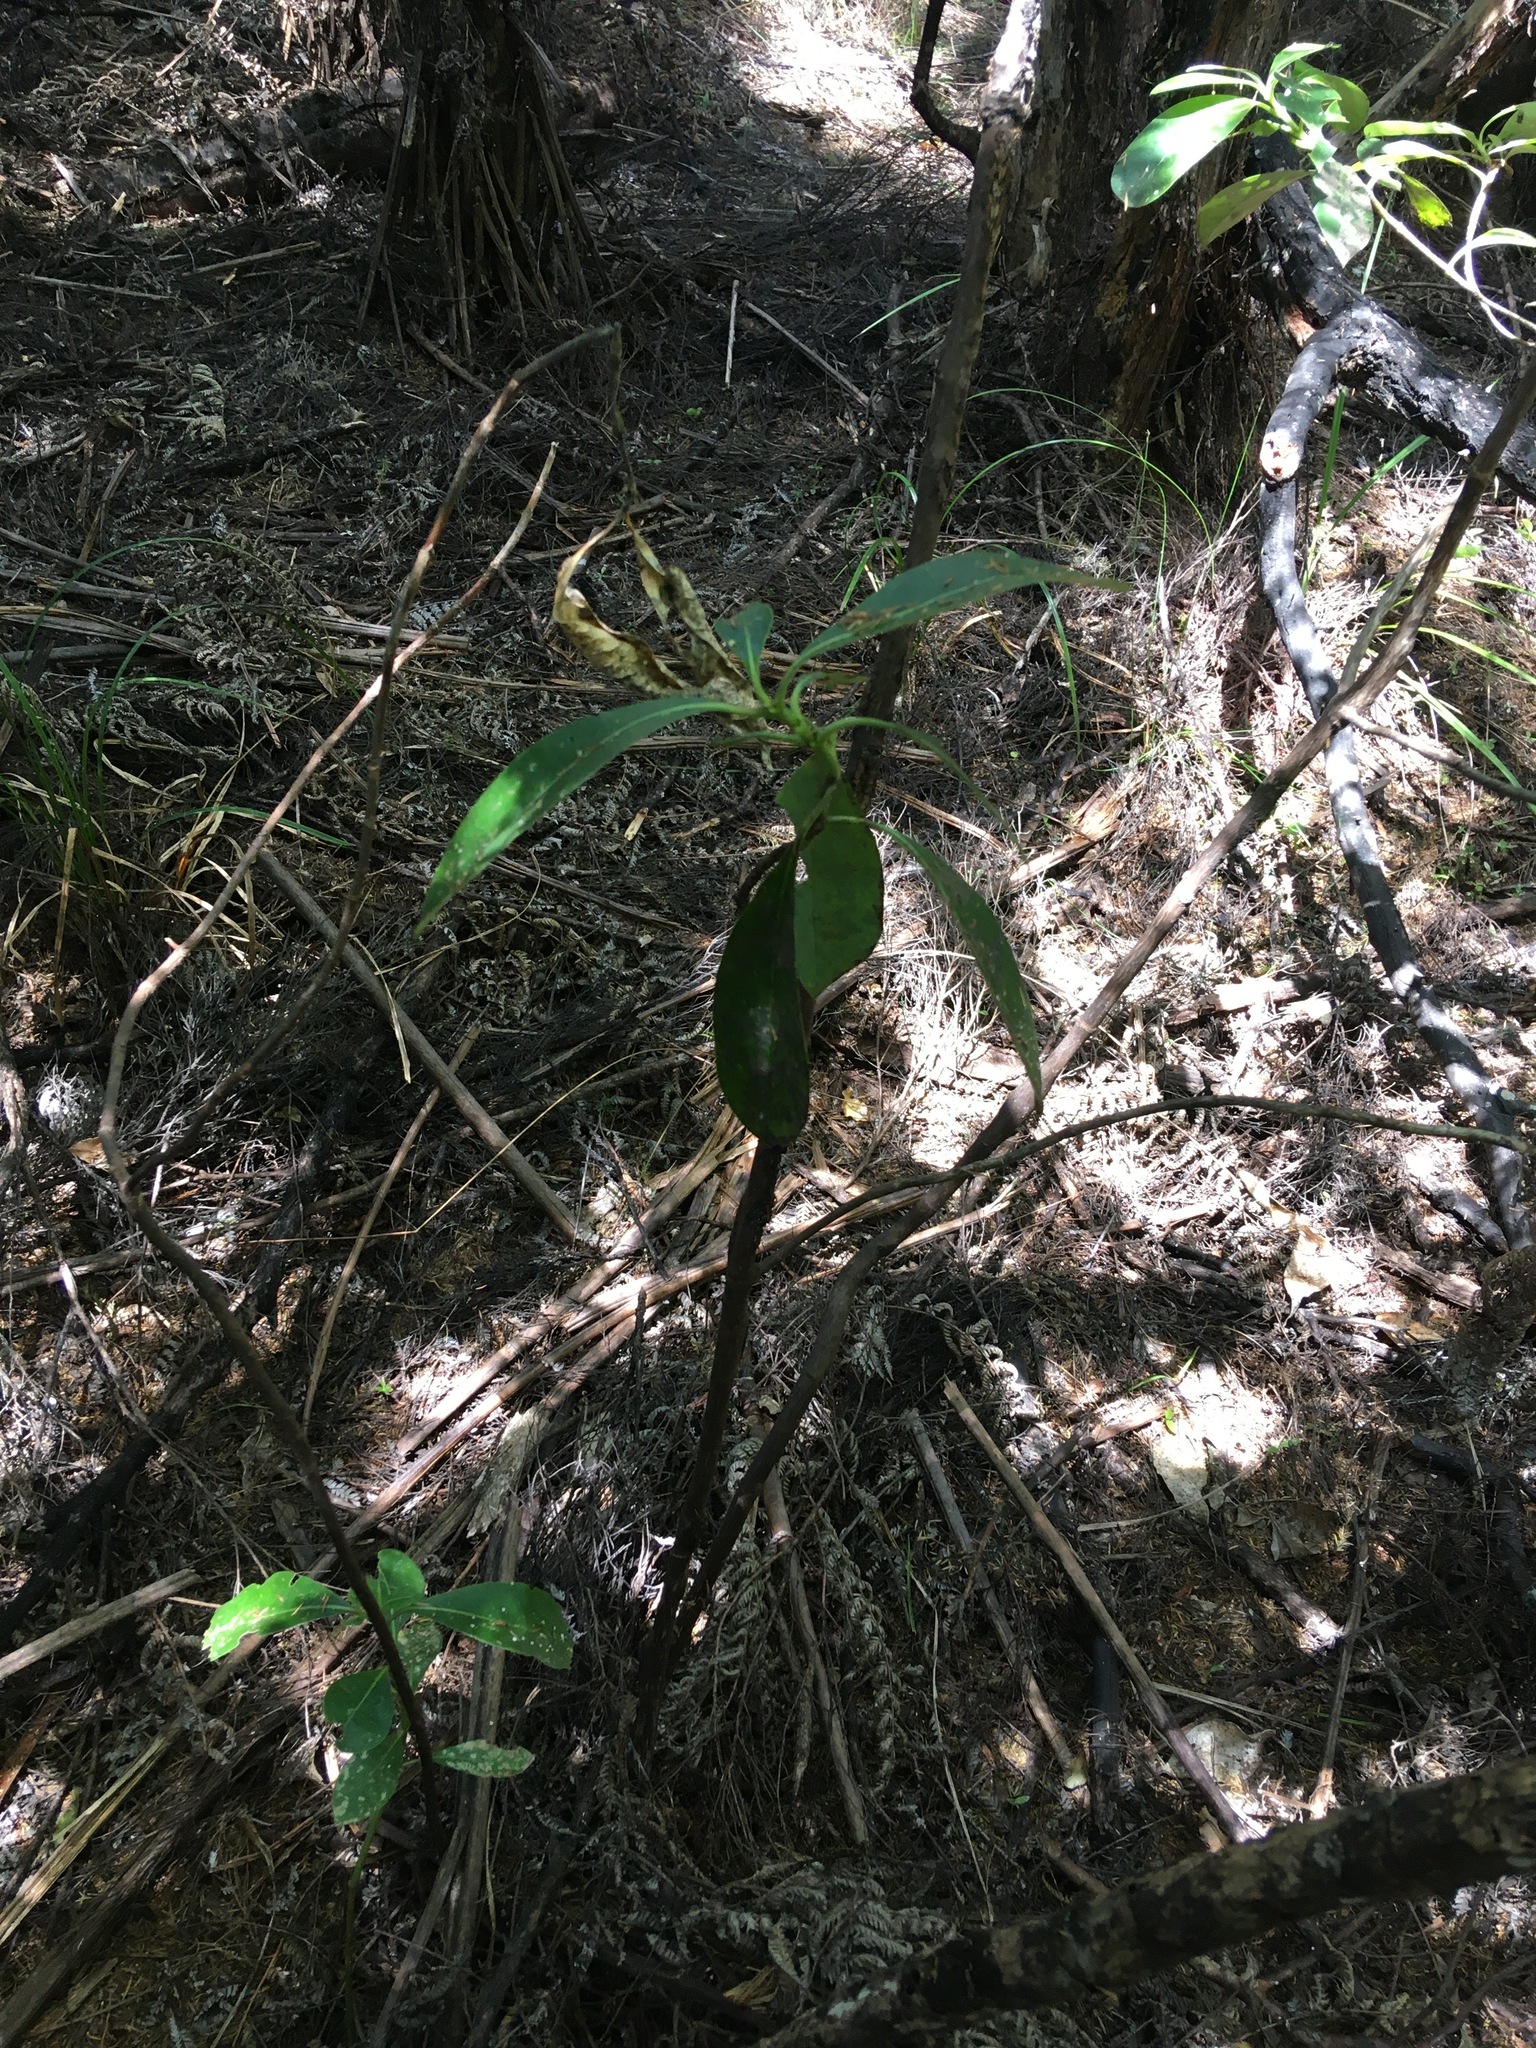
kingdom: Plantae
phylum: Tracheophyta
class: Magnoliopsida
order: Gentianales
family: Rubiaceae
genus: Coprosma
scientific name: Coprosma lucida
